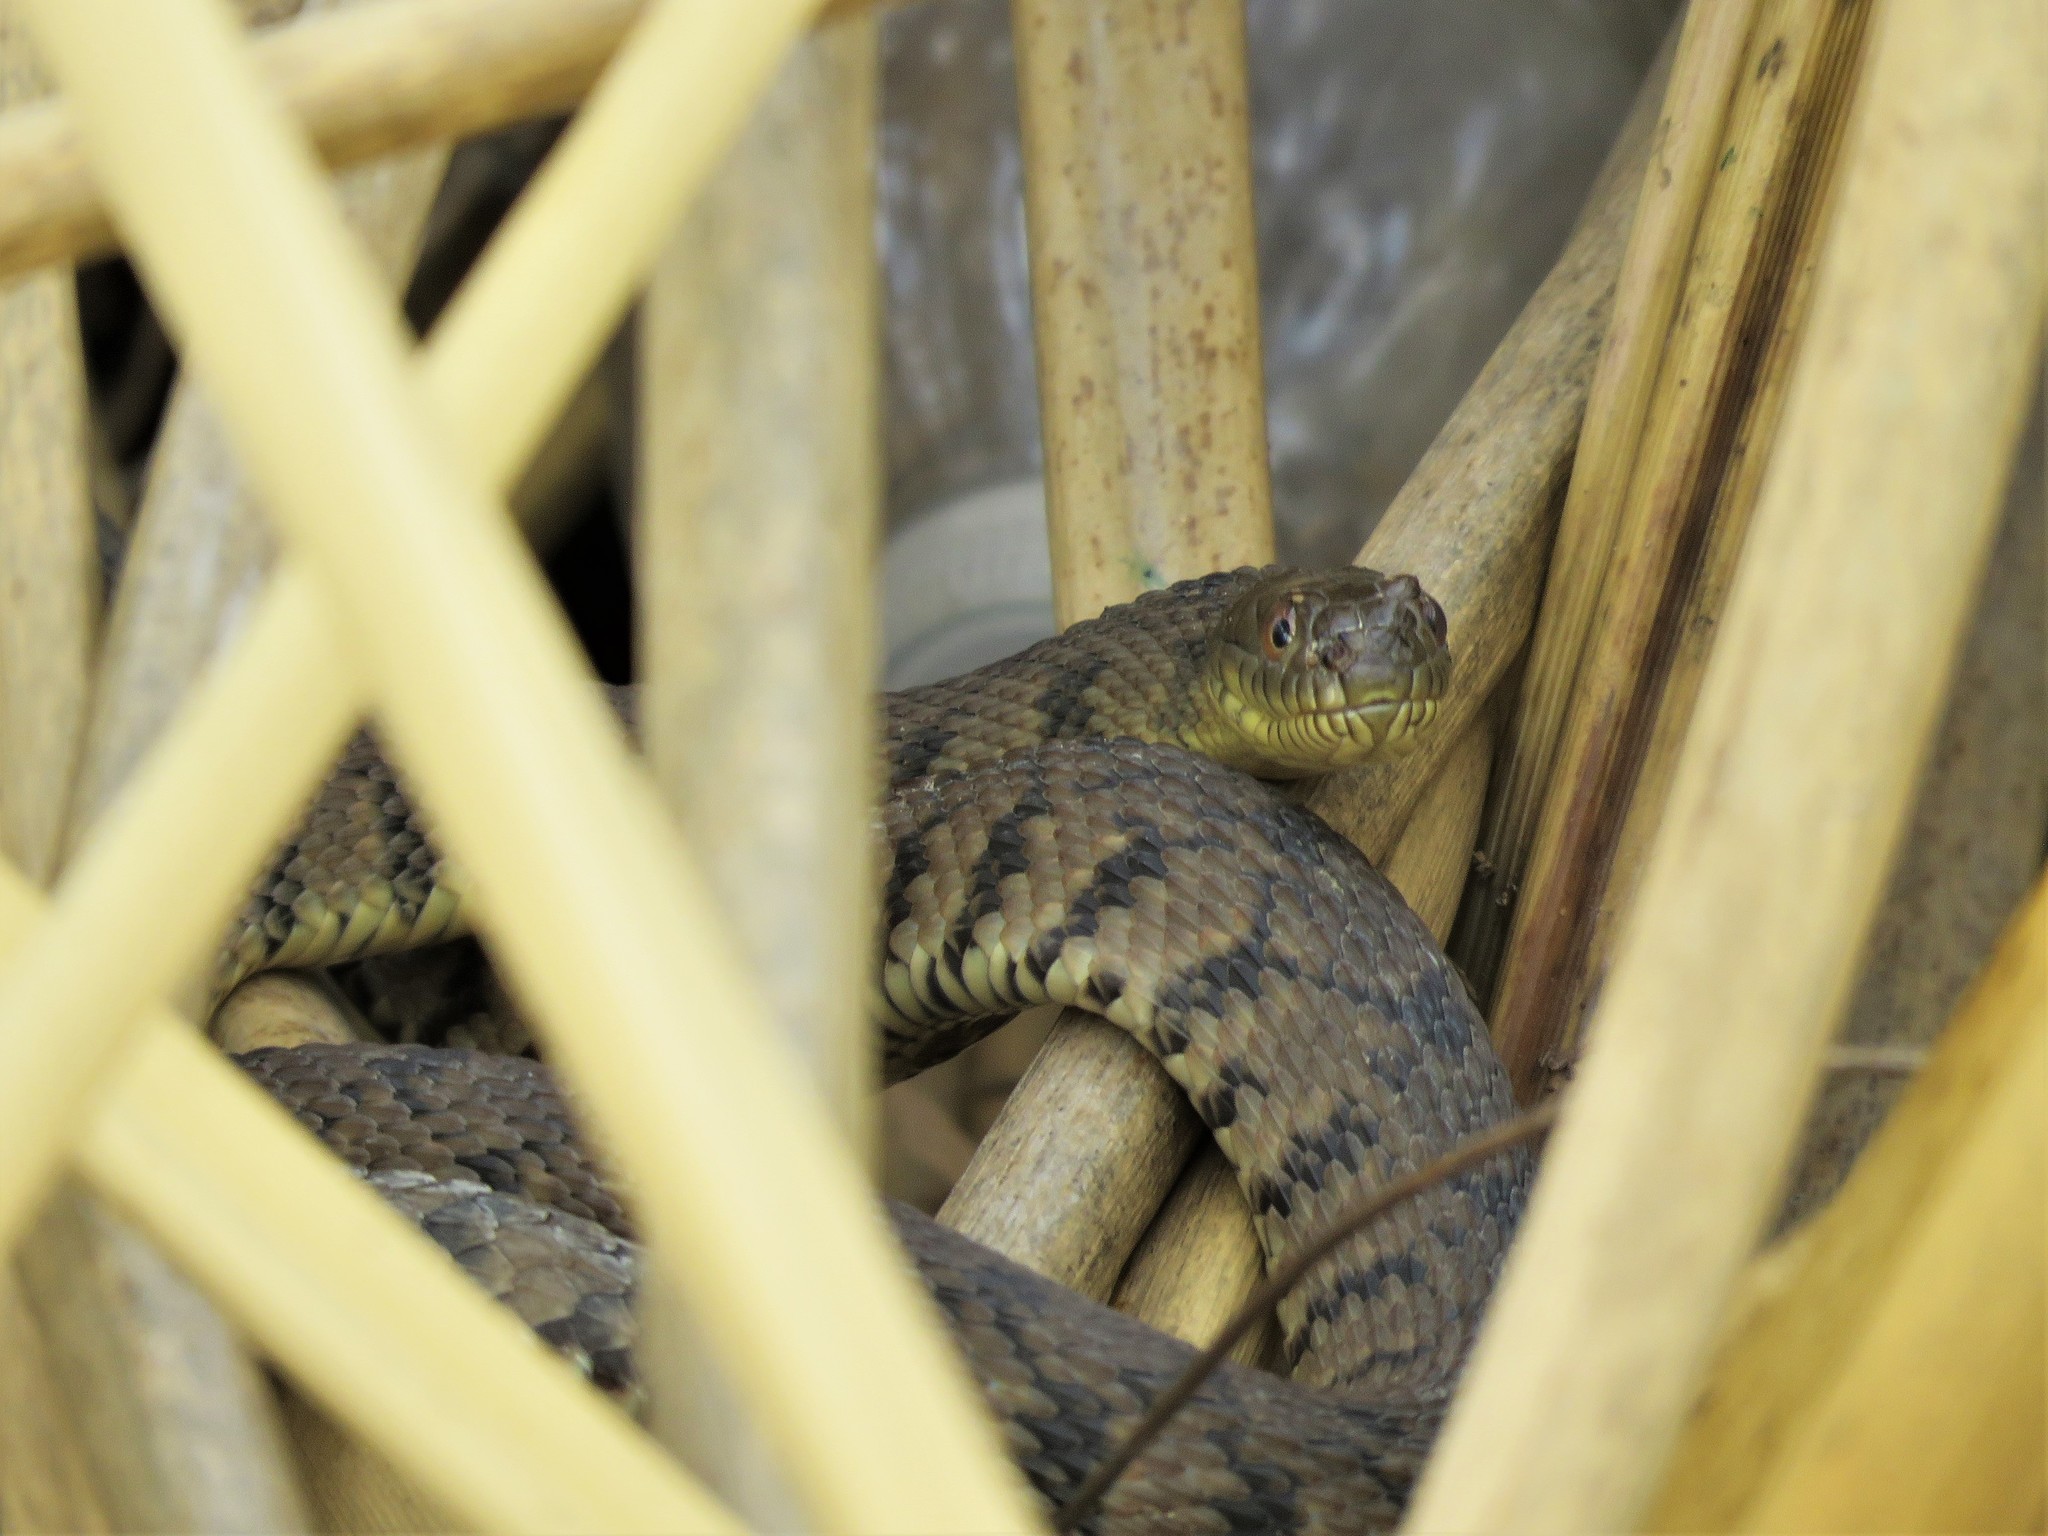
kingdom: Animalia
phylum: Chordata
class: Squamata
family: Colubridae
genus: Nerodia
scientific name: Nerodia rhombifer
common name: Diamondback water snake
